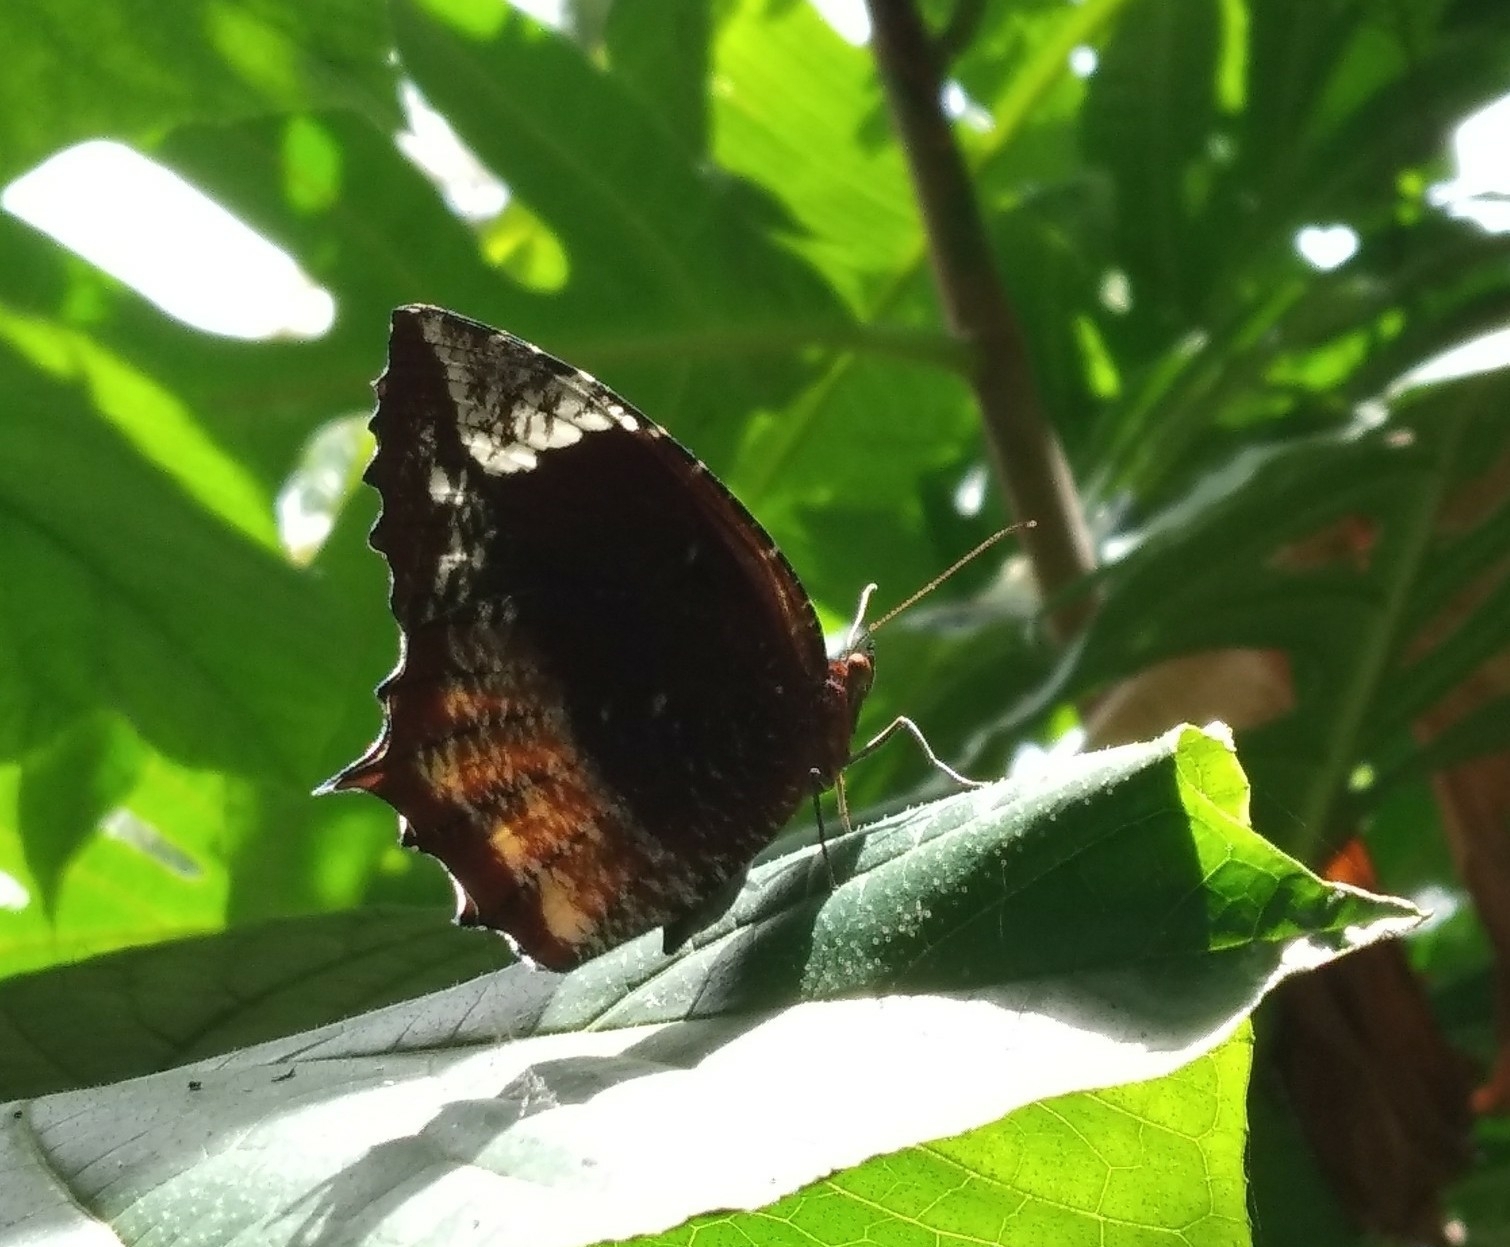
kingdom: Animalia
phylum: Arthropoda
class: Insecta
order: Lepidoptera
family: Nymphalidae
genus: Elymnias
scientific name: Elymnias caudata
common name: Tailed palmfly
